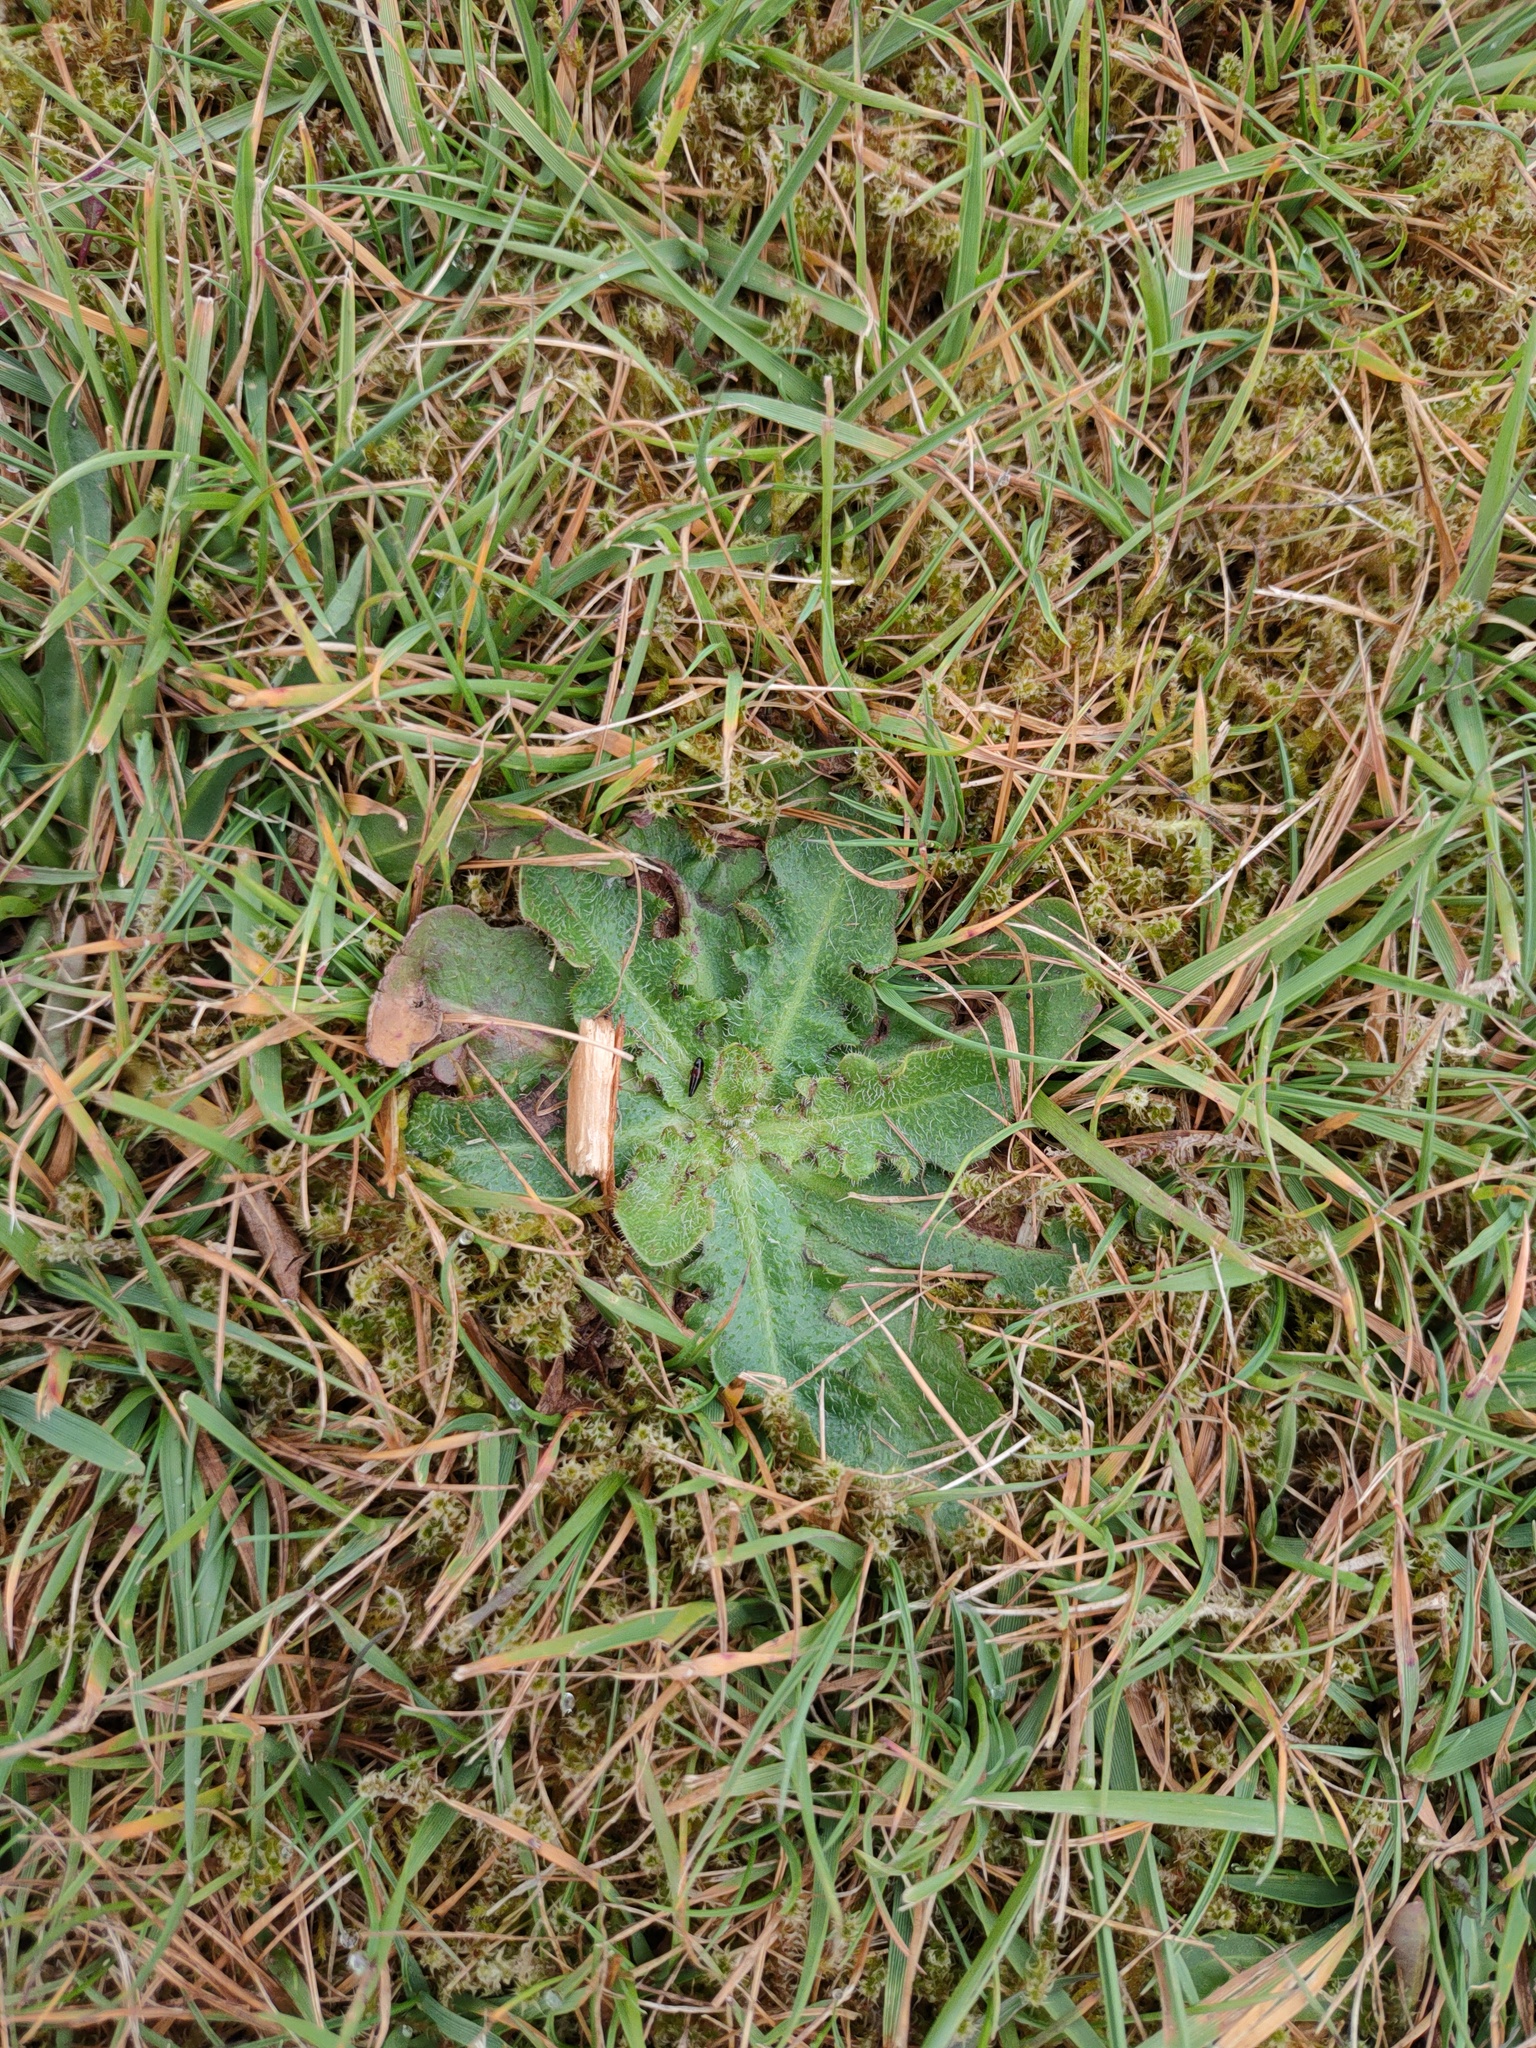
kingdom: Plantae
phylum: Tracheophyta
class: Magnoliopsida
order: Asterales
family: Asteraceae
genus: Hypochaeris
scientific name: Hypochaeris radicata
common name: Flatweed
